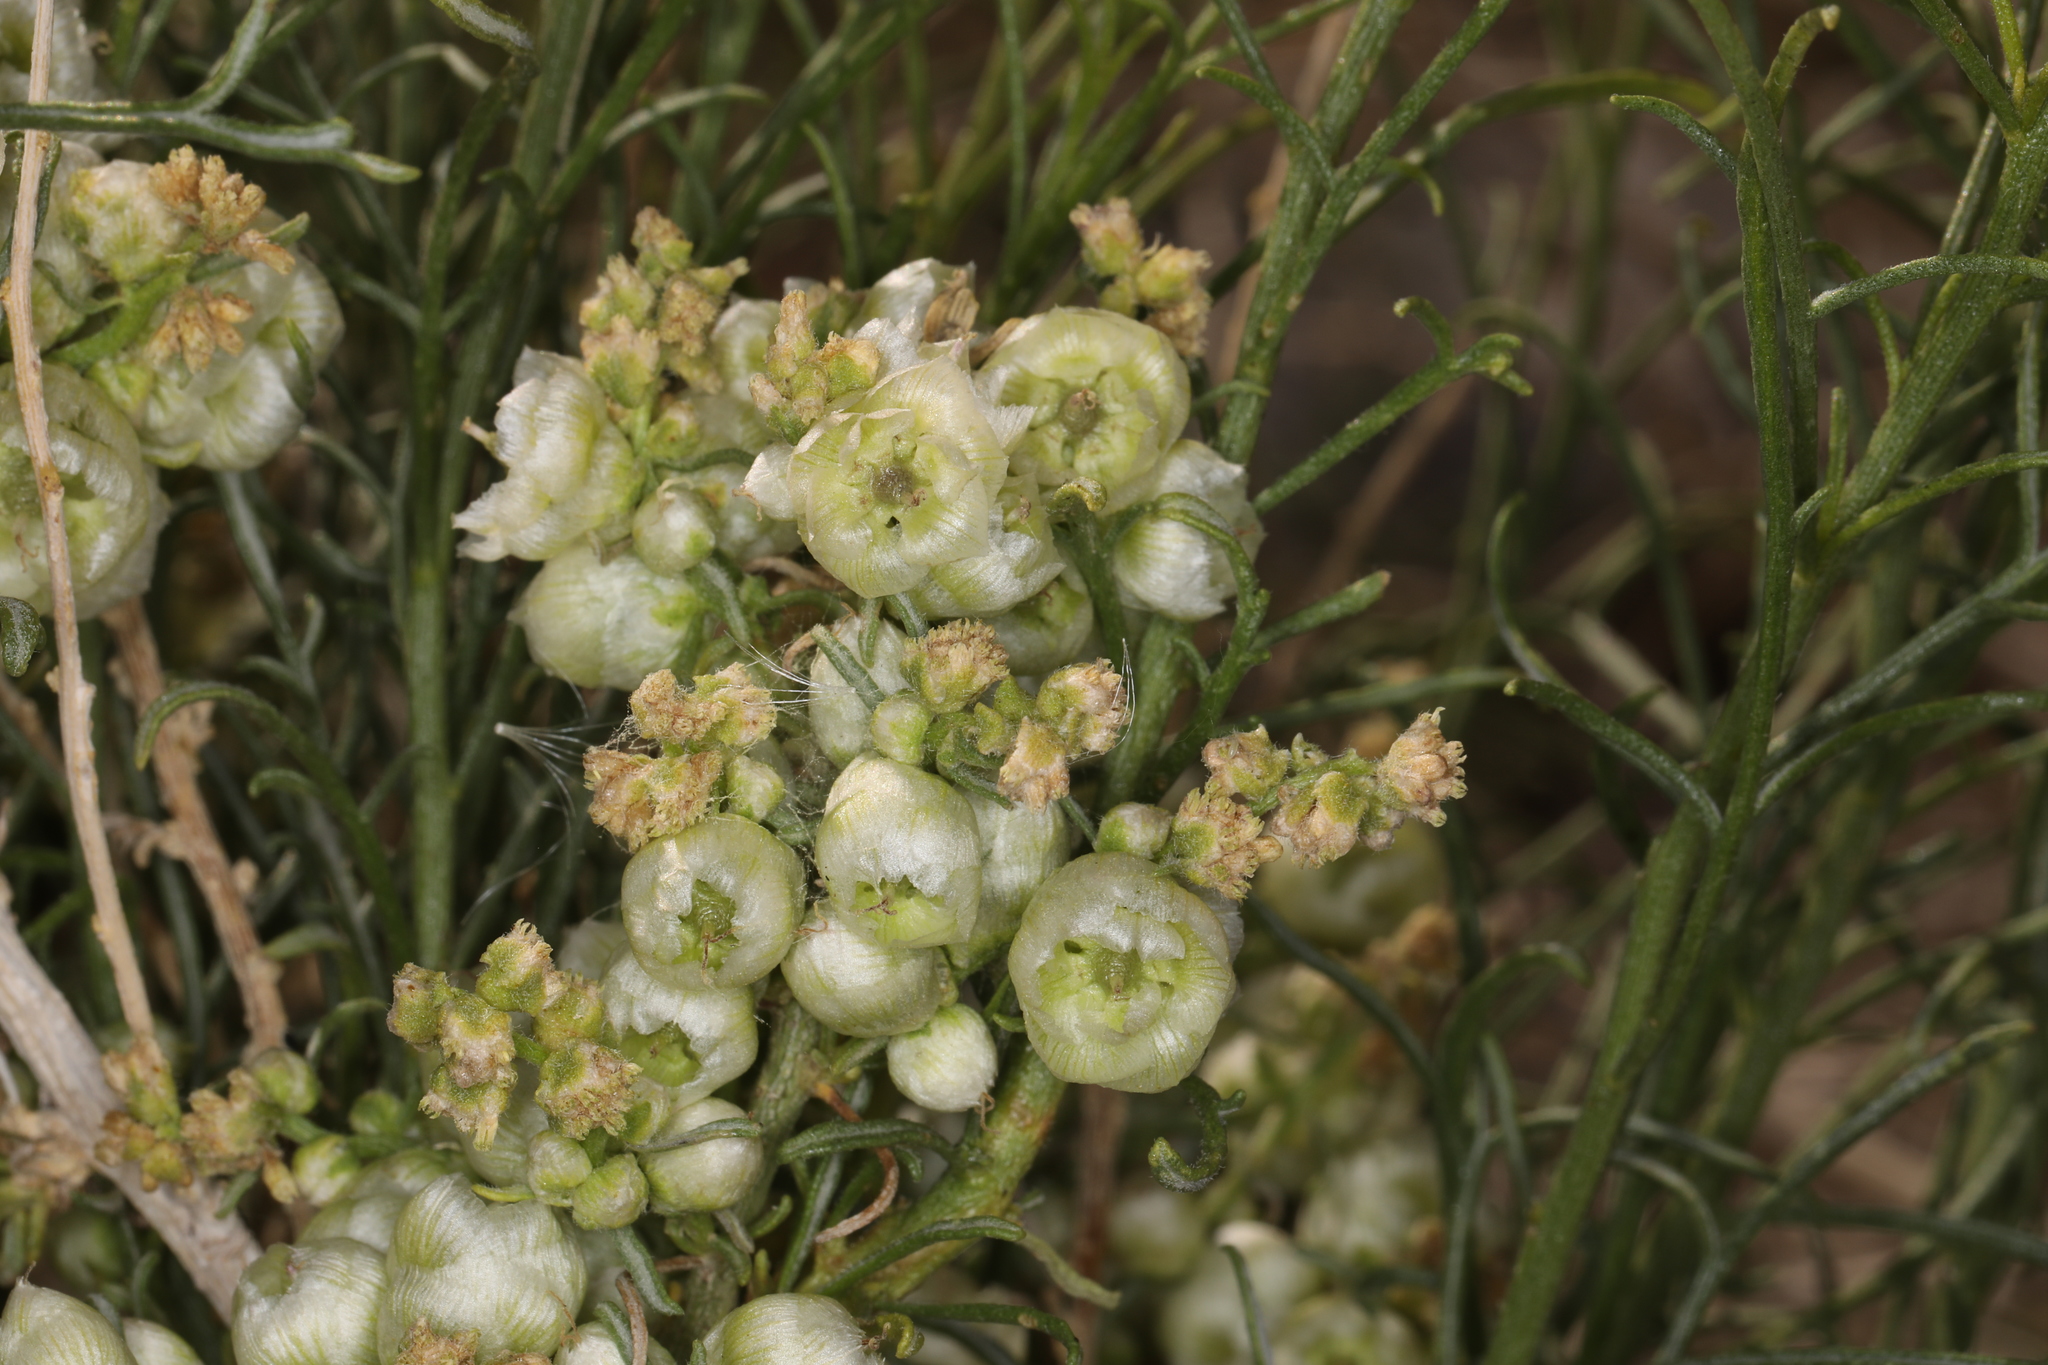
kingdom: Plantae
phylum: Tracheophyta
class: Magnoliopsida
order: Asterales
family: Asteraceae
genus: Ambrosia
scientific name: Ambrosia salsola
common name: Burrobrush
